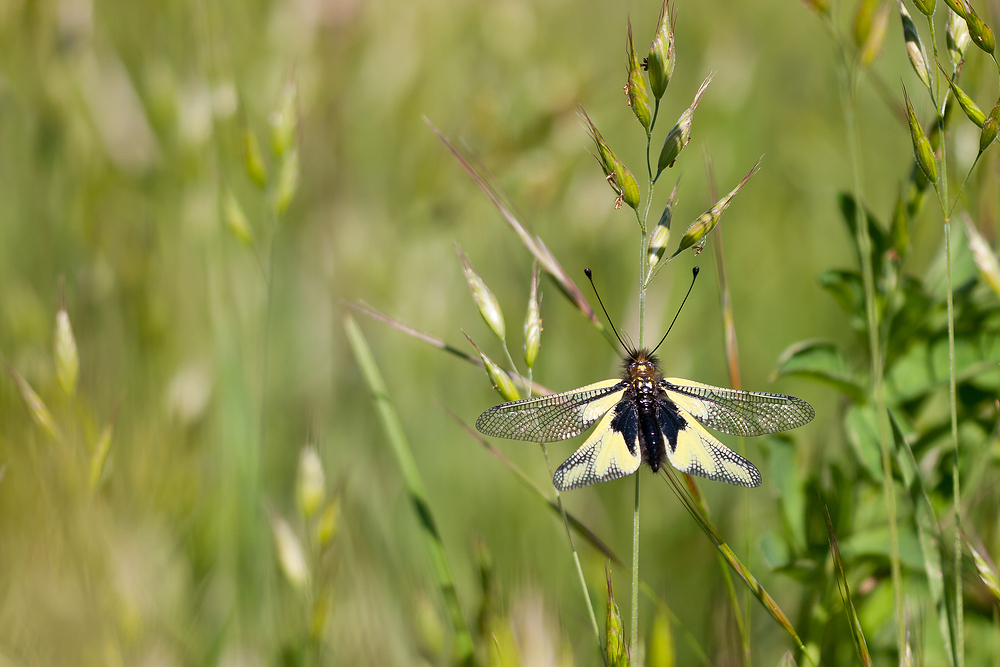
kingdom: Animalia
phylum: Arthropoda
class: Insecta
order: Neuroptera
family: Ascalaphidae
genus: Libelloides
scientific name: Libelloides coccajus
